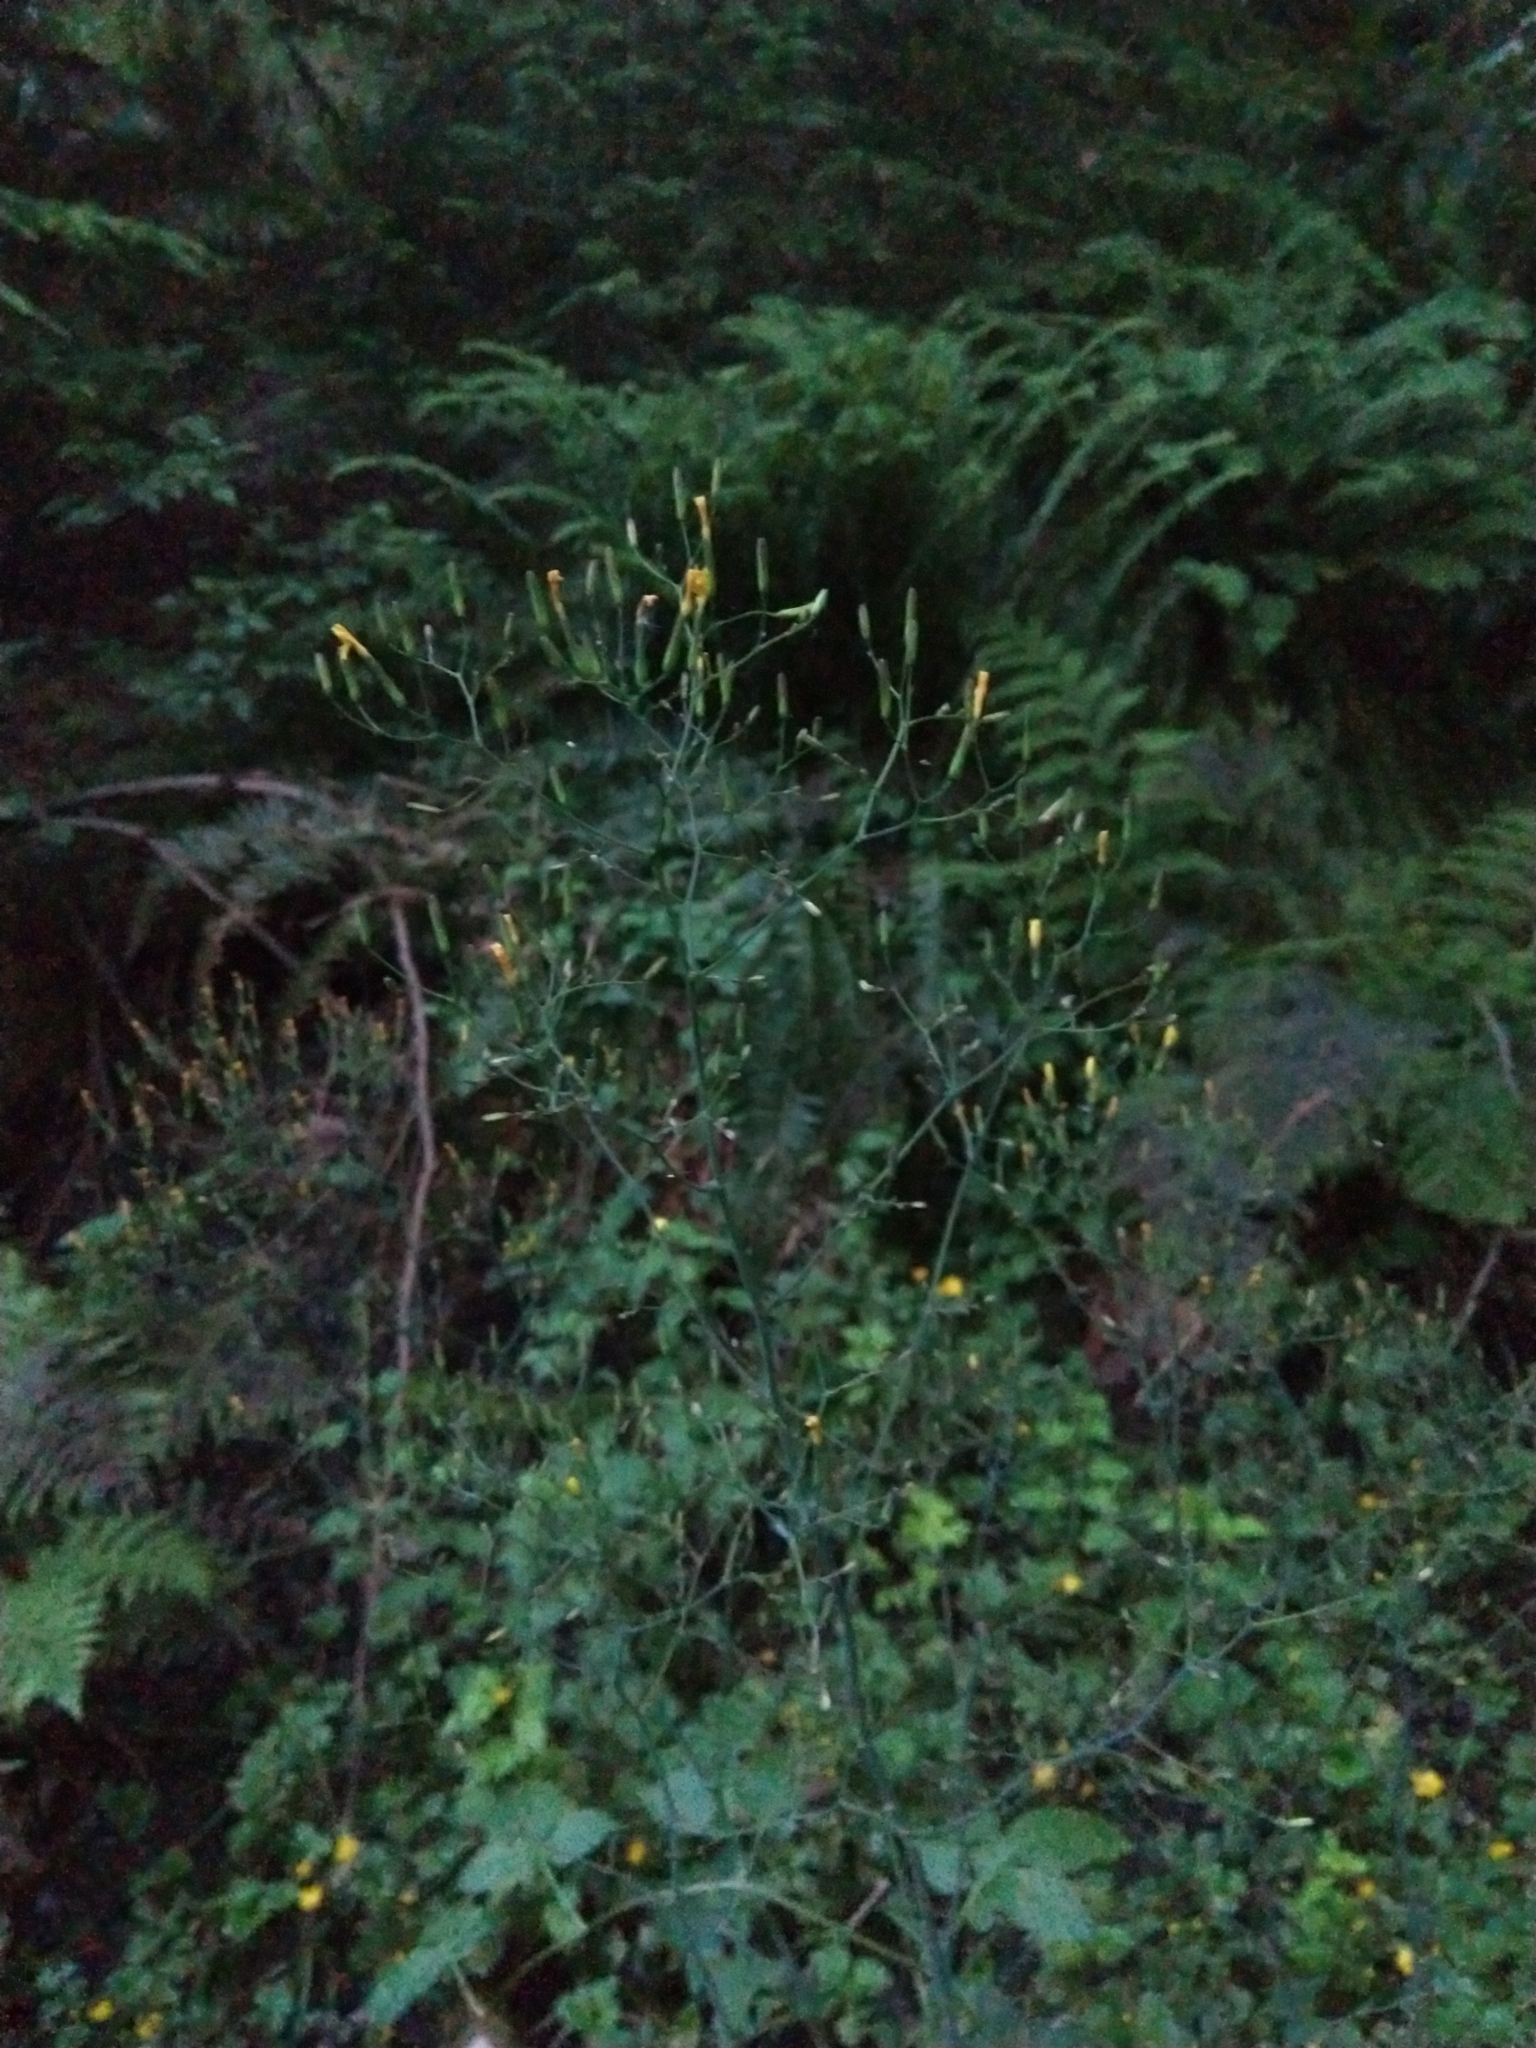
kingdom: Plantae
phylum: Tracheophyta
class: Magnoliopsida
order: Asterales
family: Asteraceae
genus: Mycelis
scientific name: Mycelis muralis
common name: Wall lettuce
